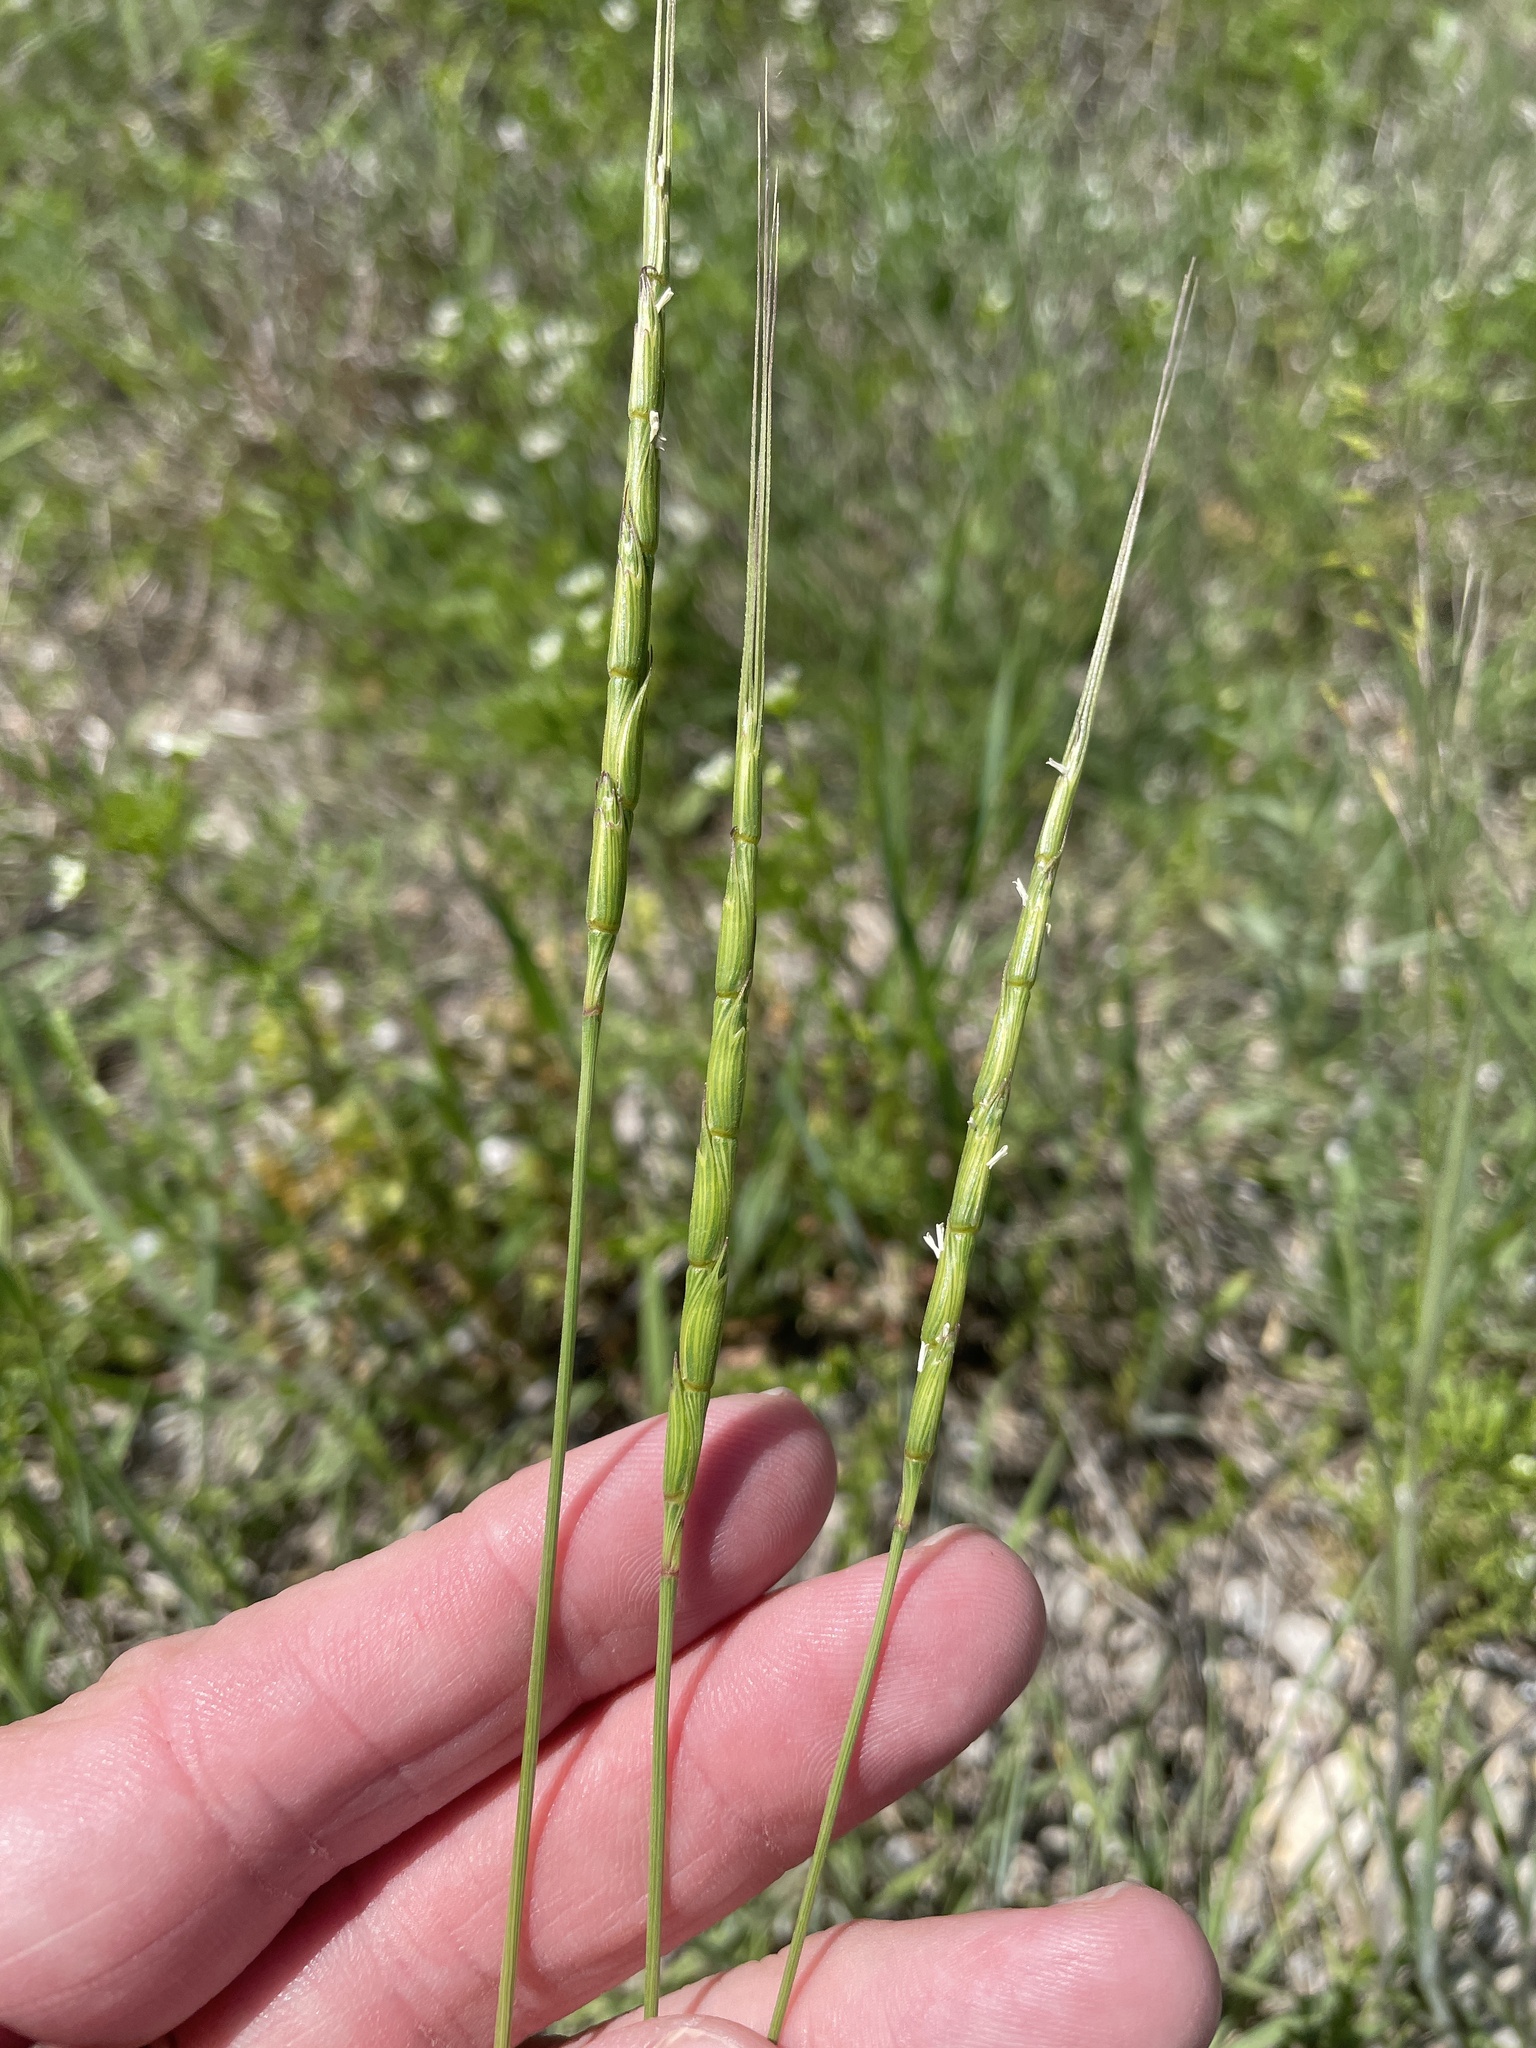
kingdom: Plantae
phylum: Tracheophyta
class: Liliopsida
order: Poales
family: Poaceae
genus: Aegilops
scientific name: Aegilops cylindrica
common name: Jointed goatgrass
